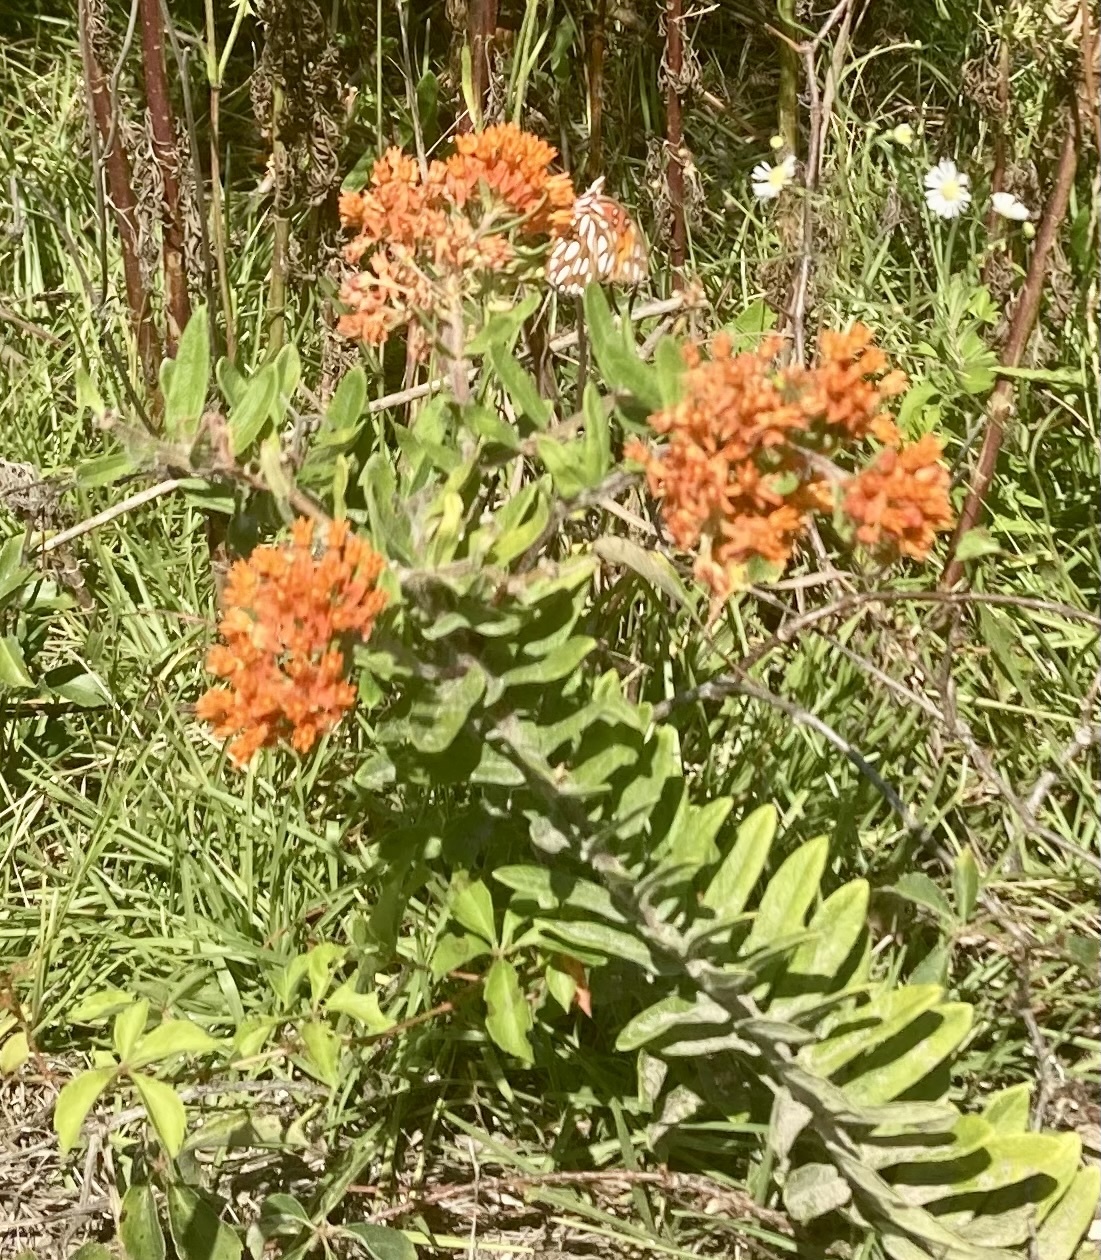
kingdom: Plantae
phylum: Tracheophyta
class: Magnoliopsida
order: Gentianales
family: Apocynaceae
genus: Asclepias
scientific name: Asclepias tuberosa
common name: Butterfly milkweed
